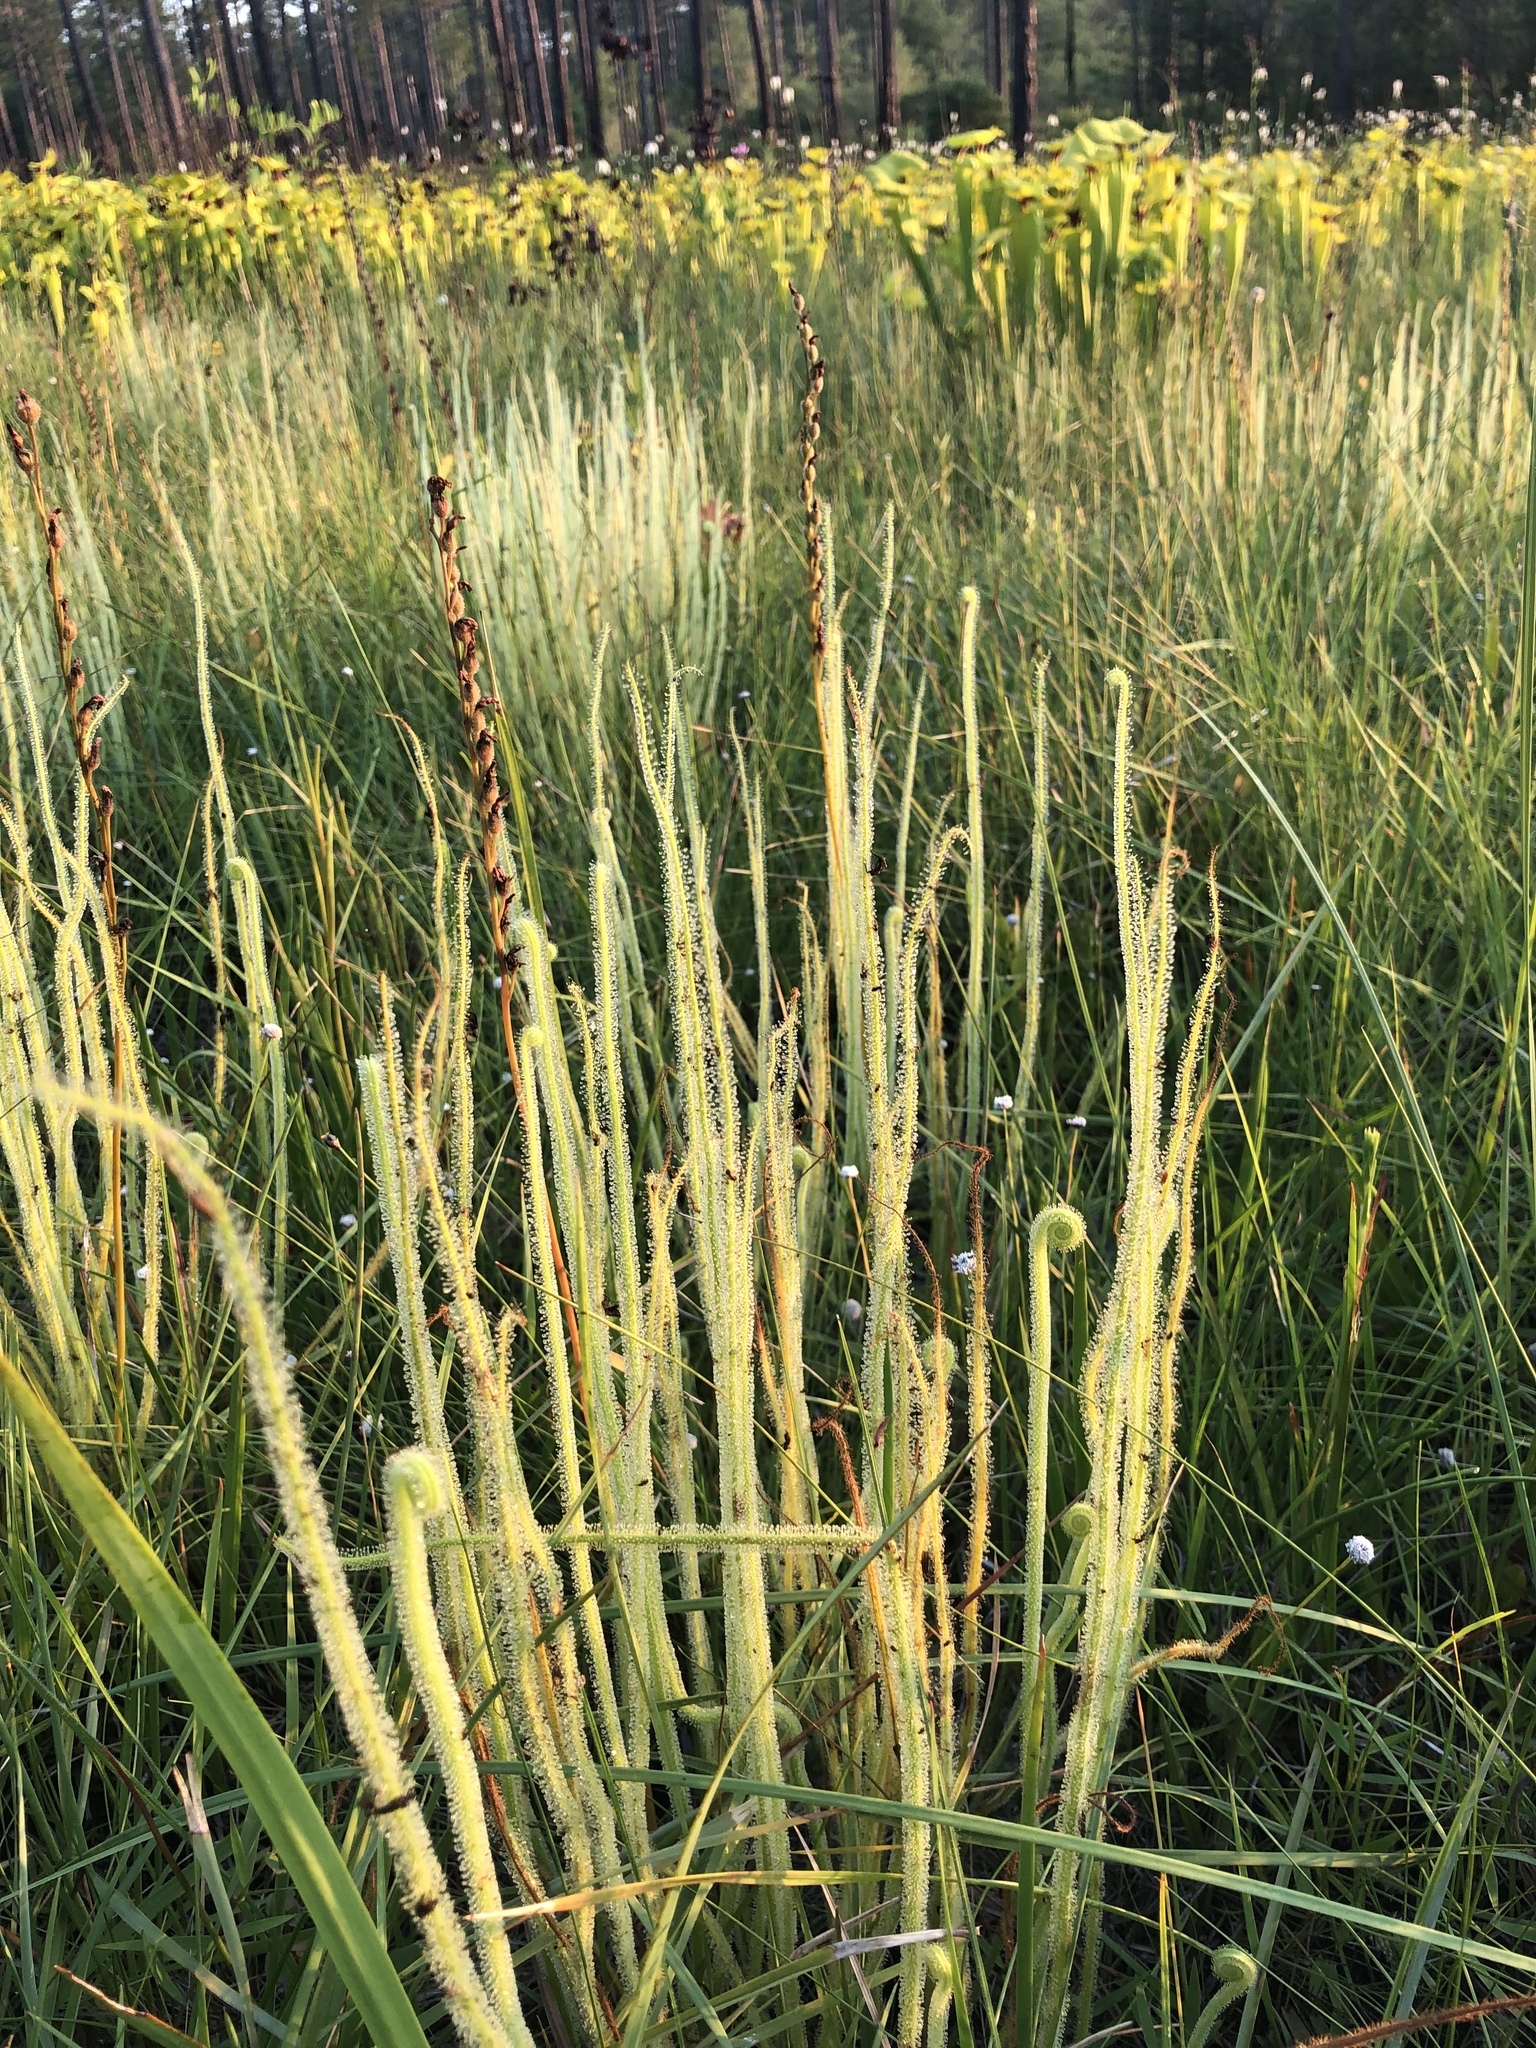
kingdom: Plantae
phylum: Tracheophyta
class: Magnoliopsida
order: Caryophyllales
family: Droseraceae
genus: Drosera
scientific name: Drosera filiformis
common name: Dew-thread
